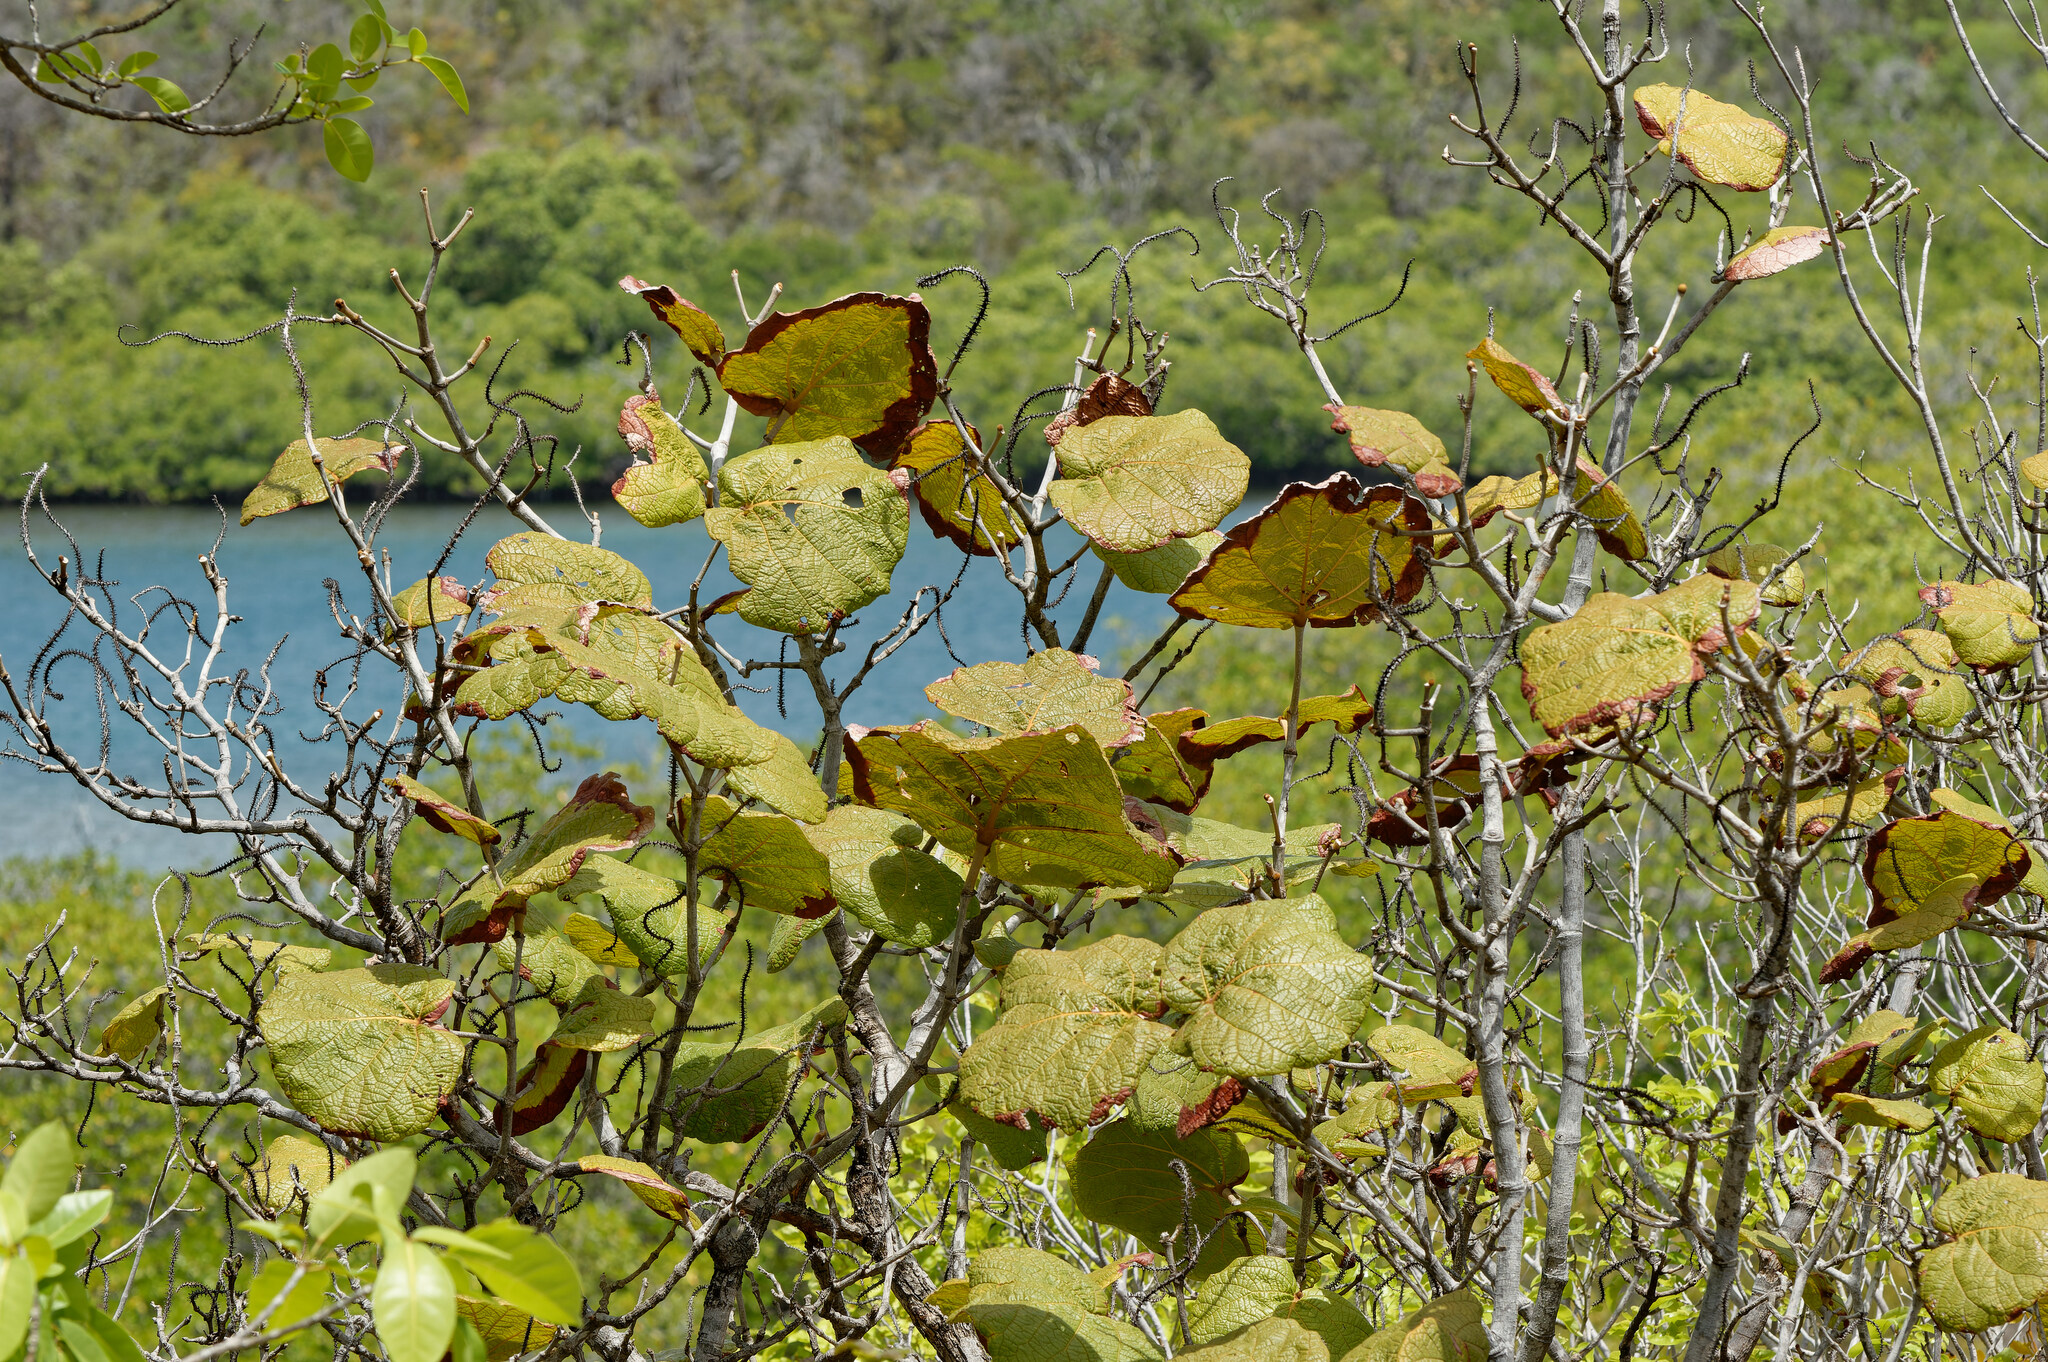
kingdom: Plantae
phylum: Tracheophyta
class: Magnoliopsida
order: Caryophyllales
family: Polygonaceae
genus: Coccoloba
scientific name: Coccoloba pubescens
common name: Mountain-grape
